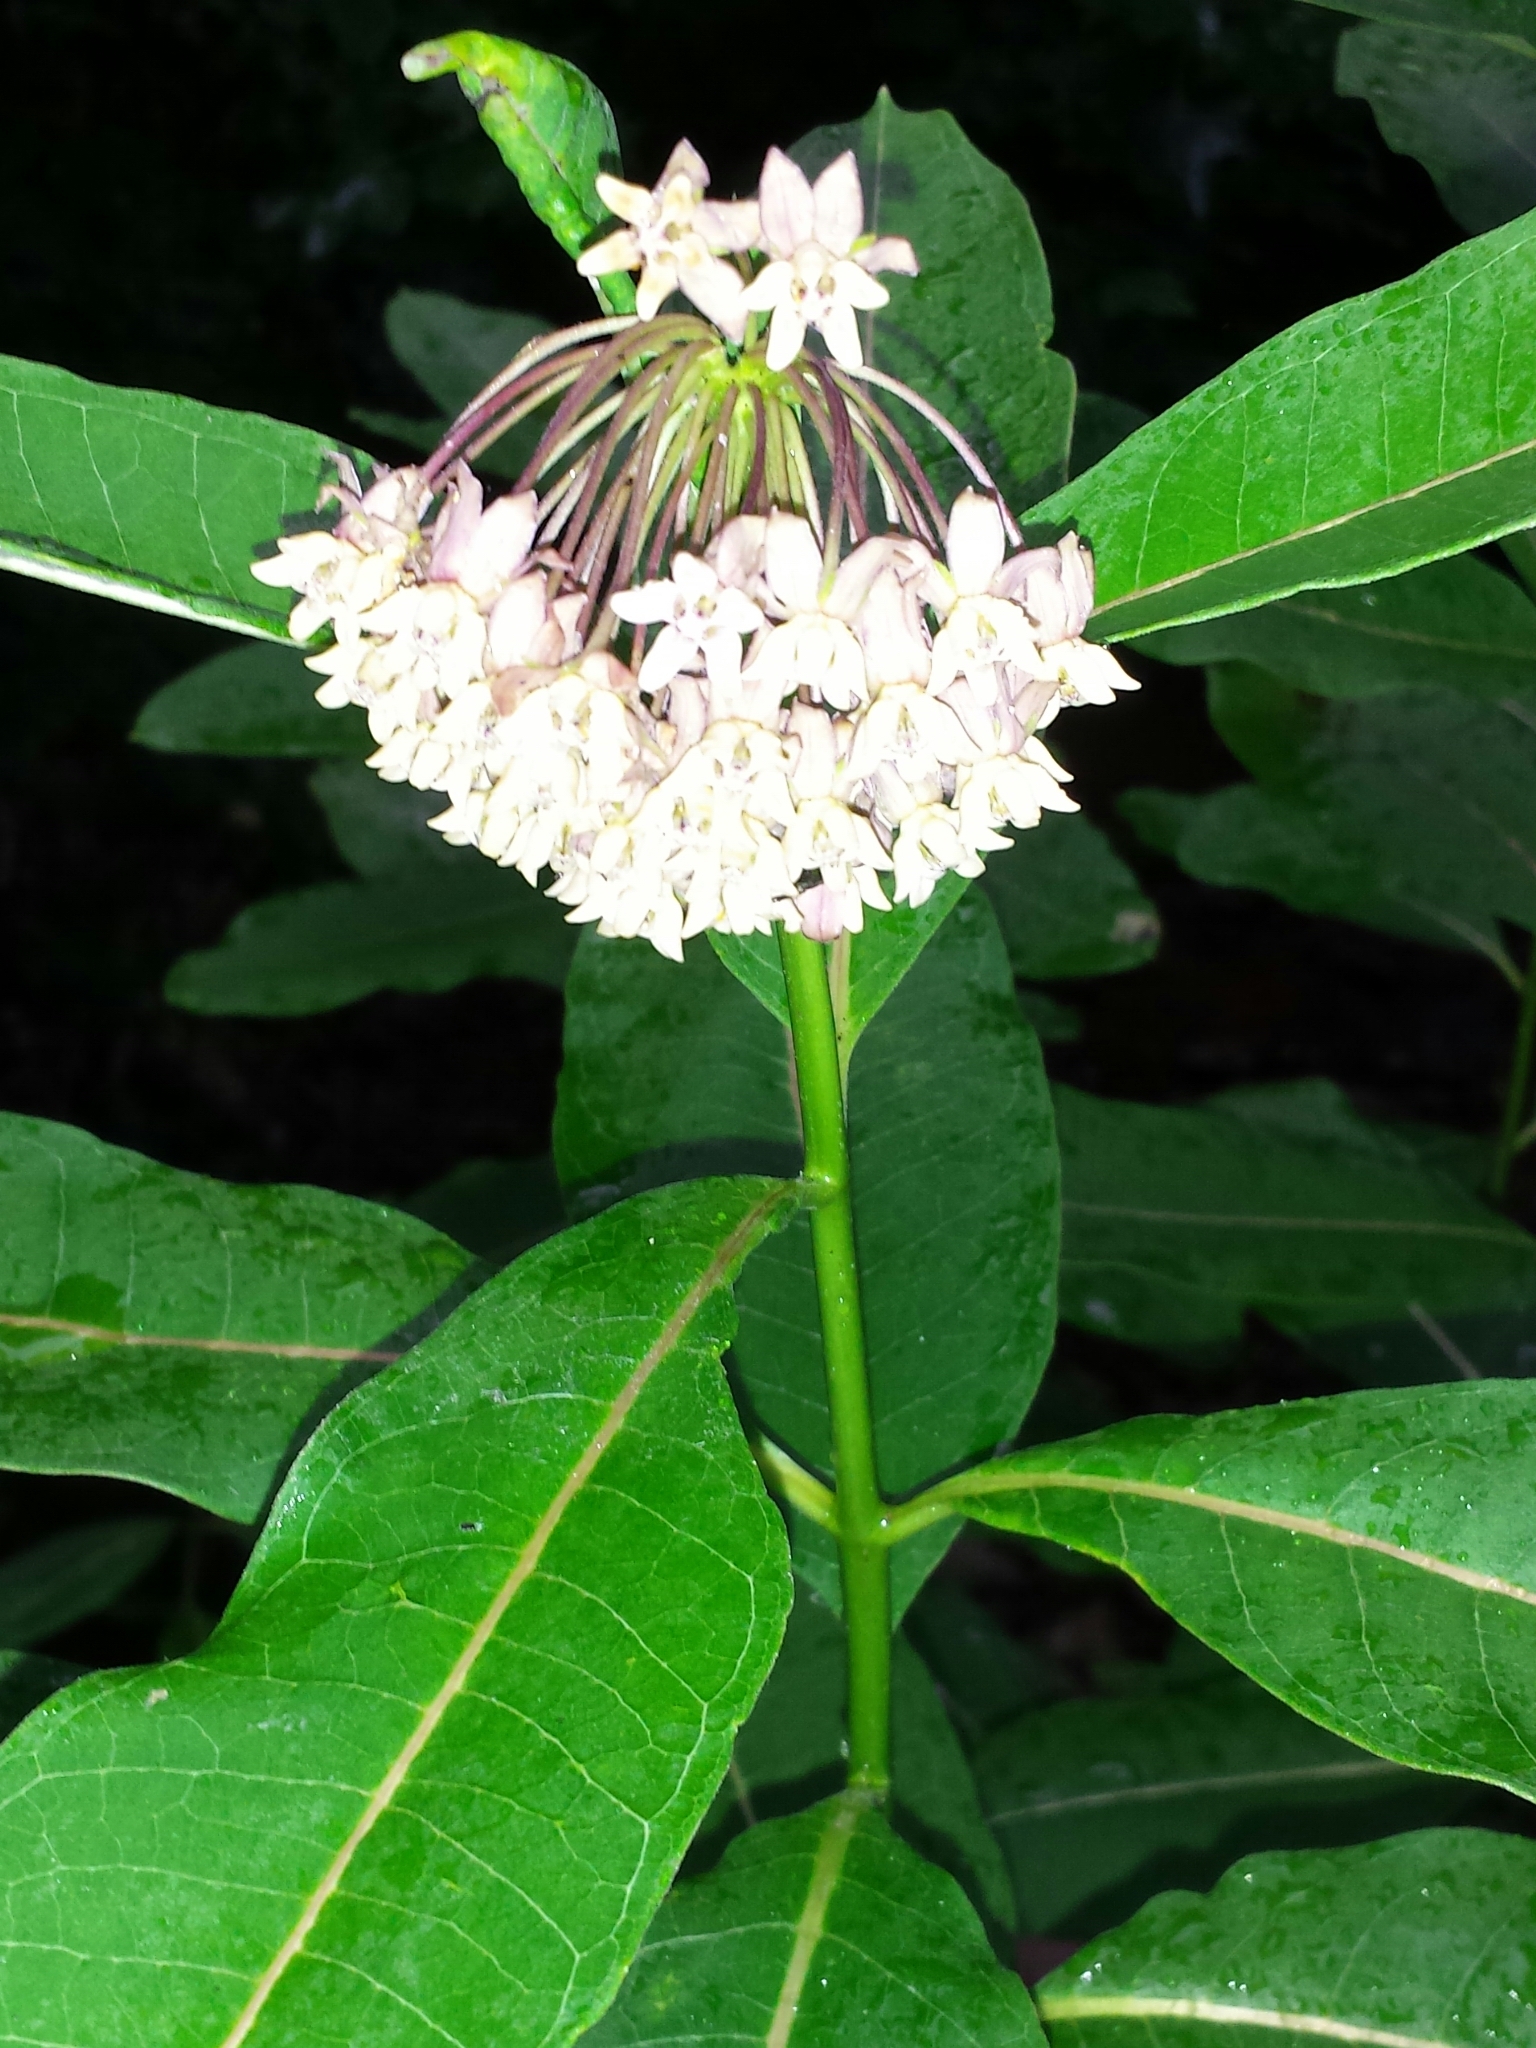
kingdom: Plantae
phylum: Tracheophyta
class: Magnoliopsida
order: Gentianales
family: Apocynaceae
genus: Asclepias
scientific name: Asclepias syriaca
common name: Common milkweed
